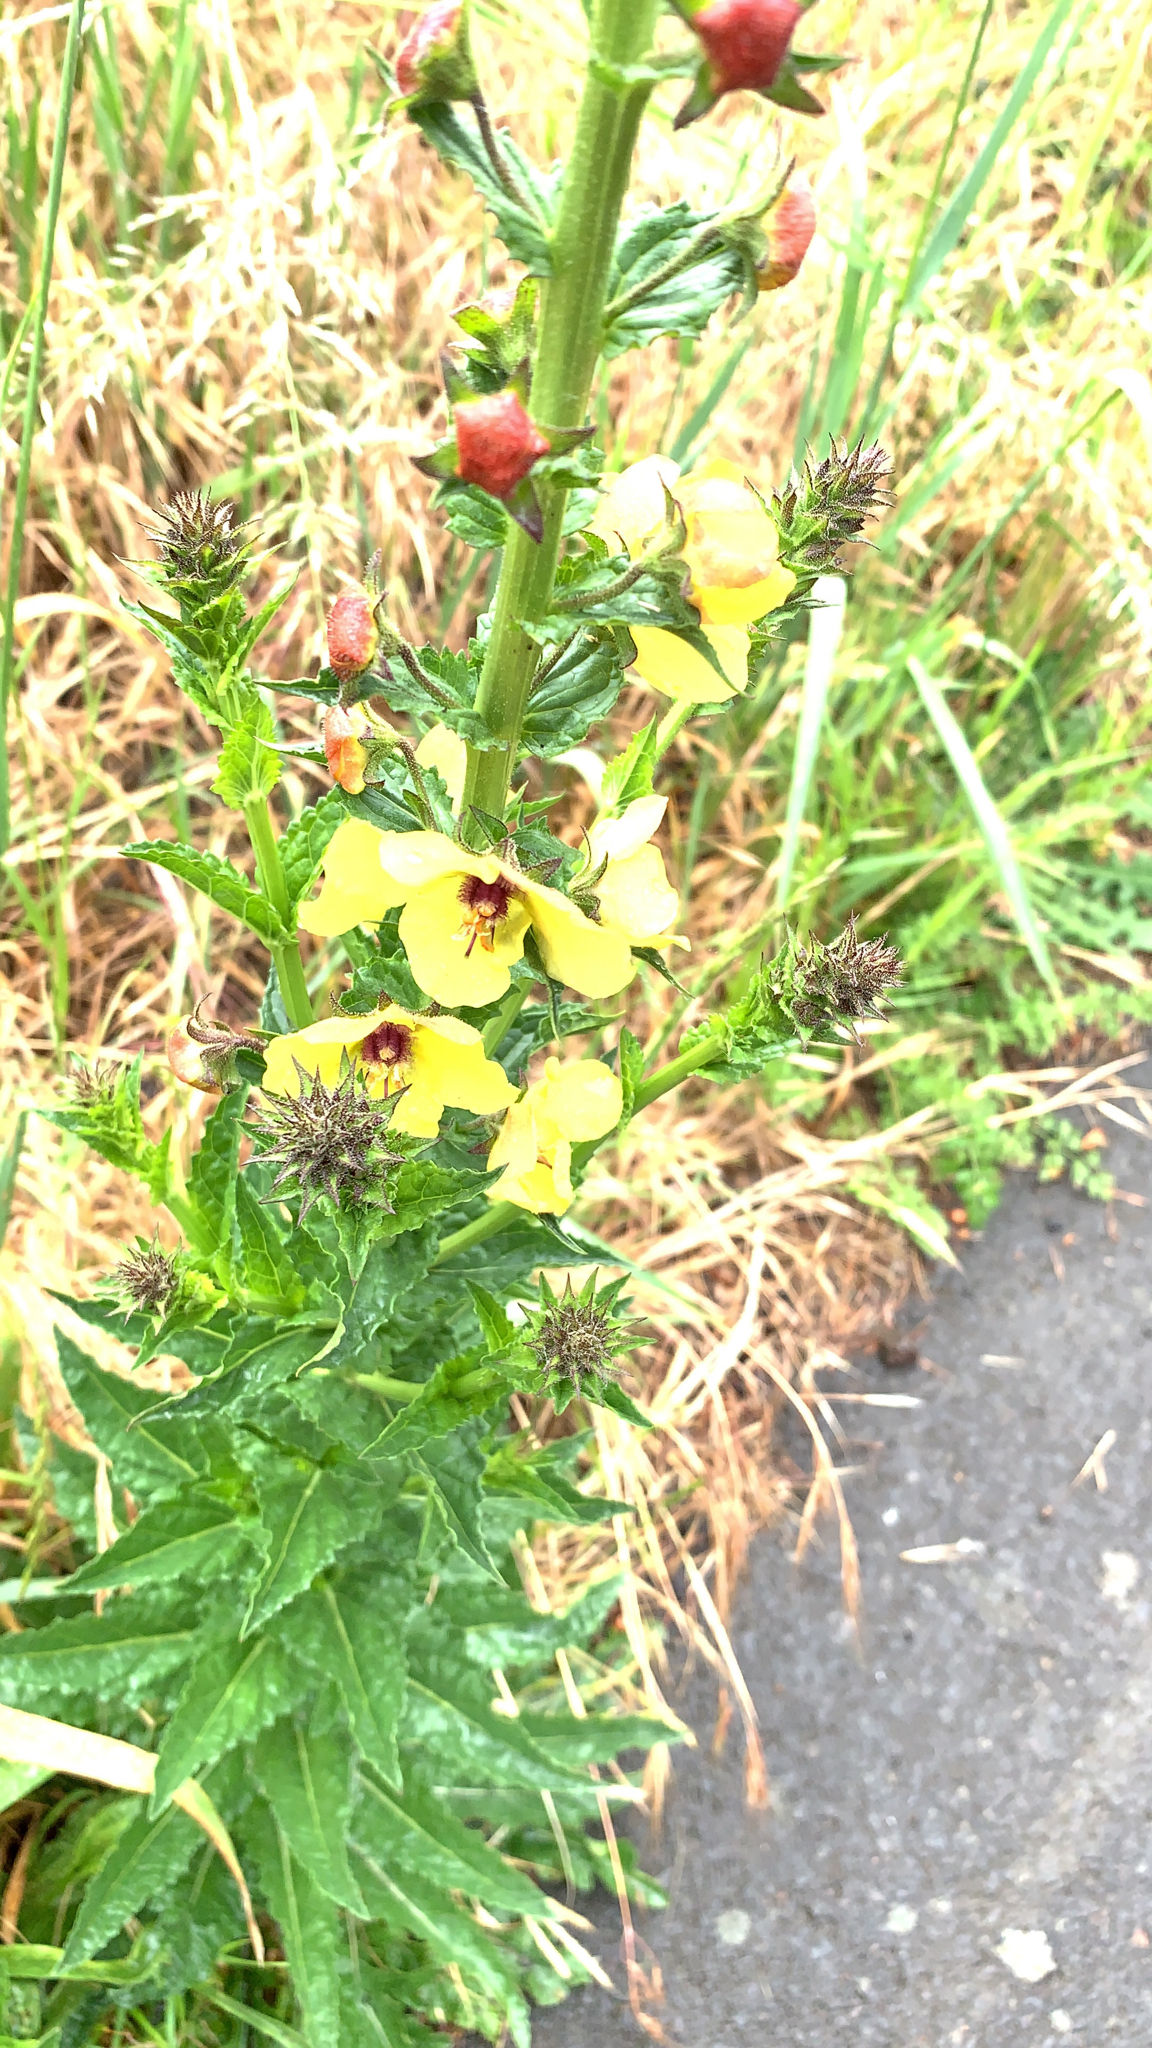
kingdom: Plantae
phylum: Tracheophyta
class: Magnoliopsida
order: Lamiales
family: Scrophulariaceae
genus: Verbascum
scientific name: Verbascum blattaria
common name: Moth mullein
